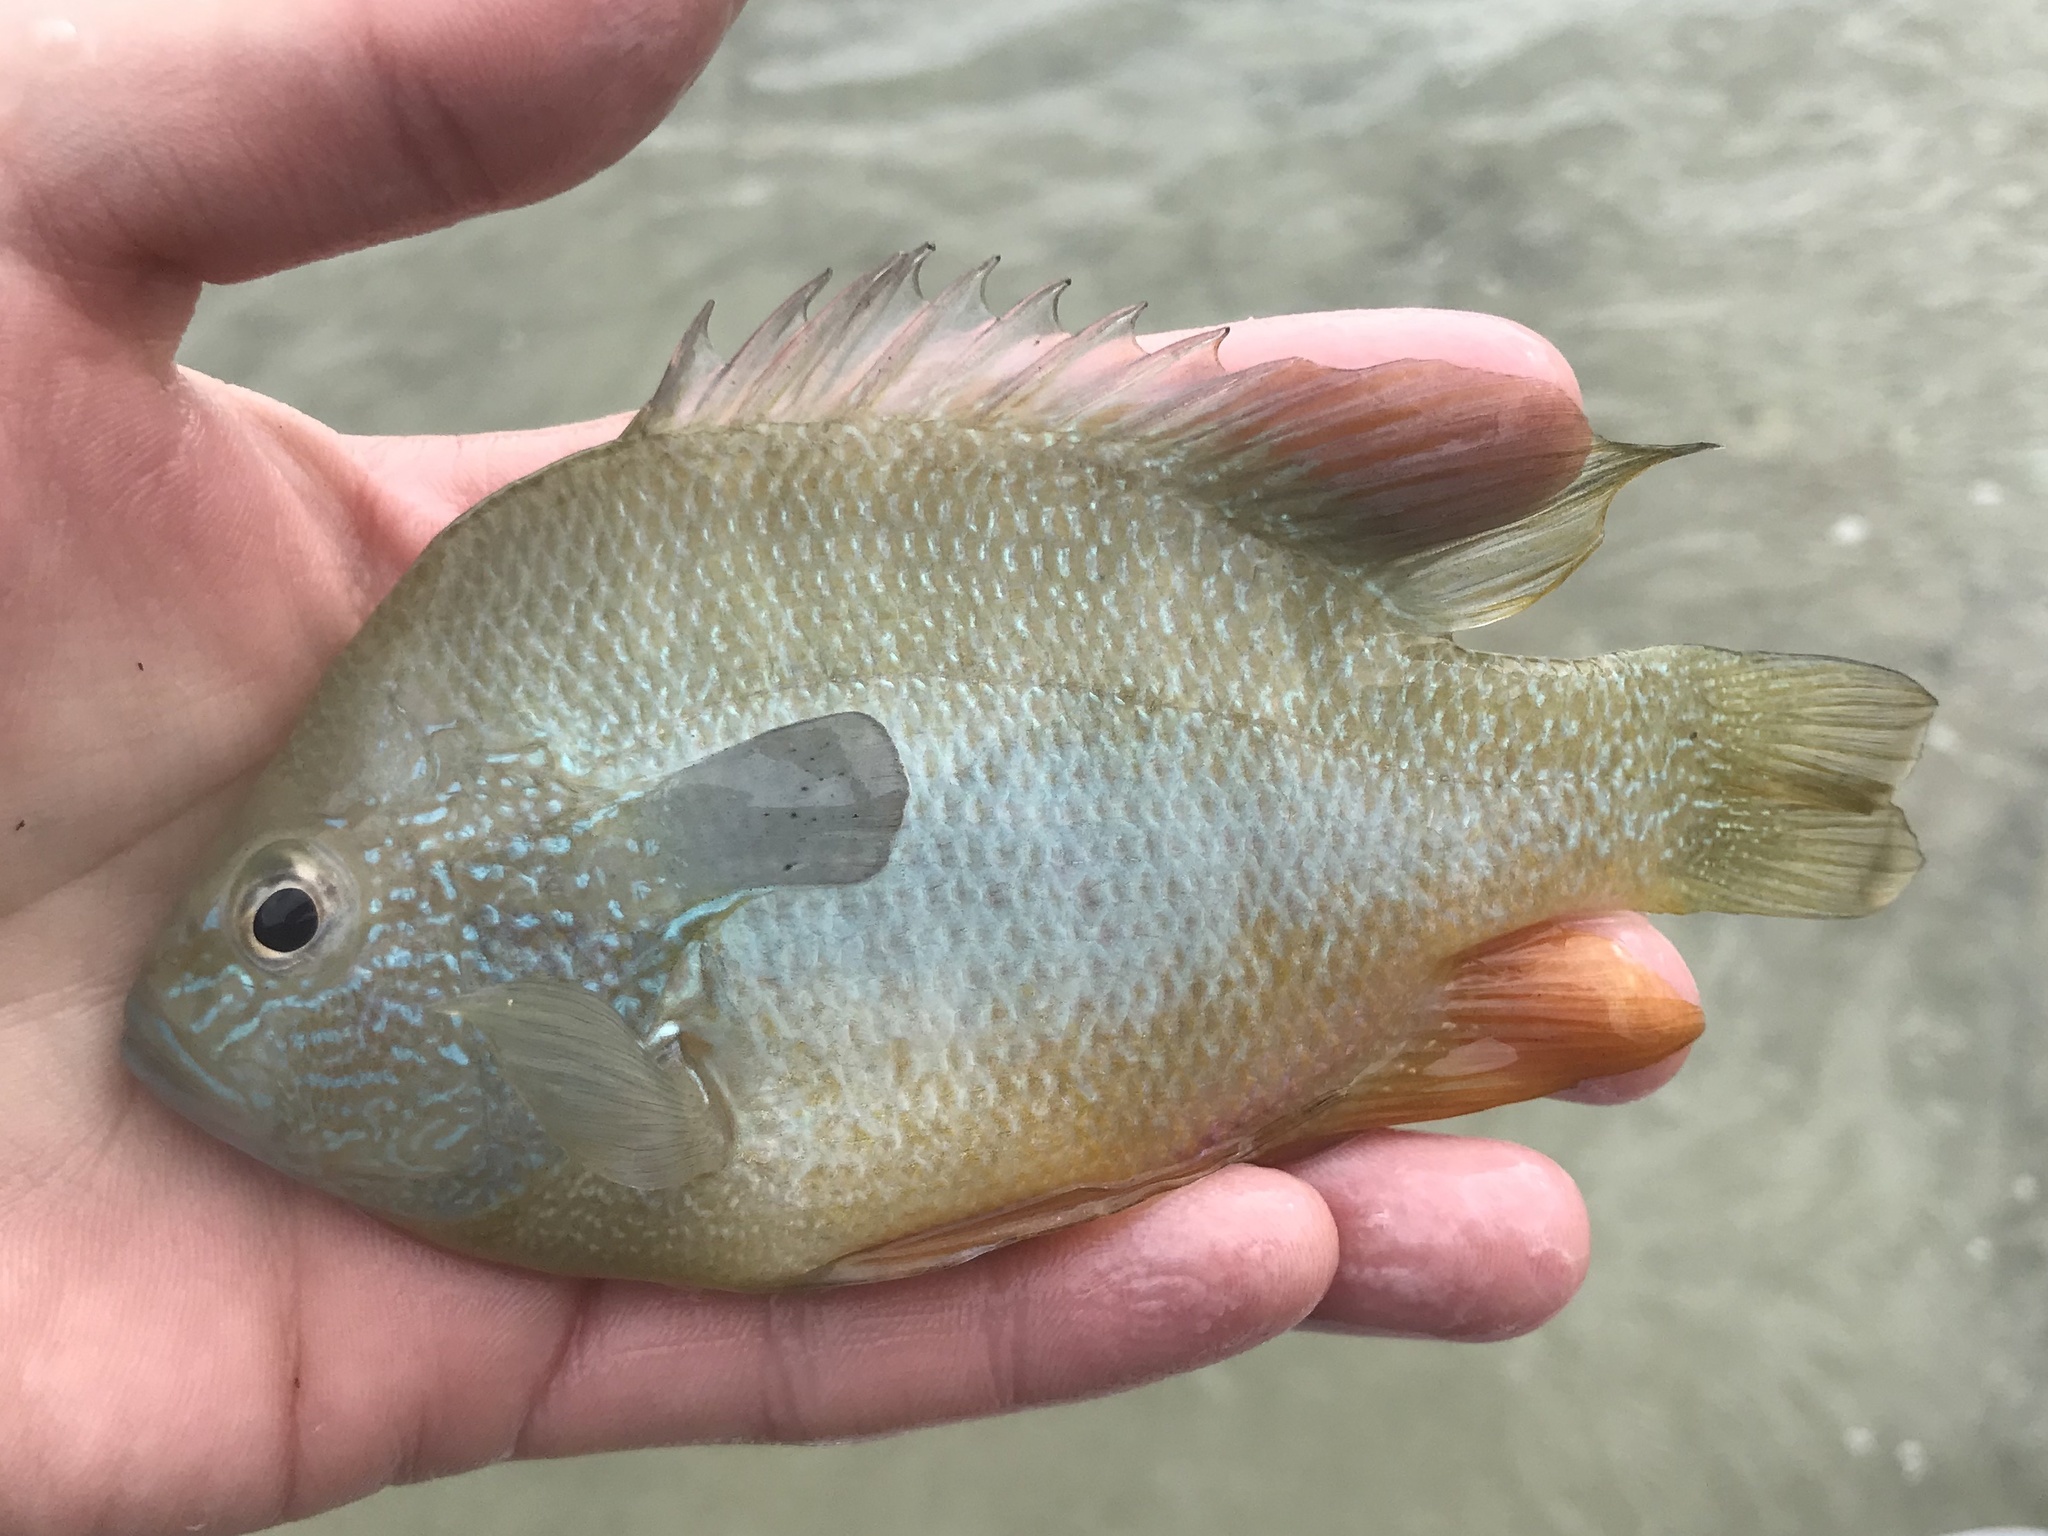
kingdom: Animalia
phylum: Chordata
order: Perciformes
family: Centrarchidae
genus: Lepomis
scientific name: Lepomis megalotis
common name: Longear sunfish
